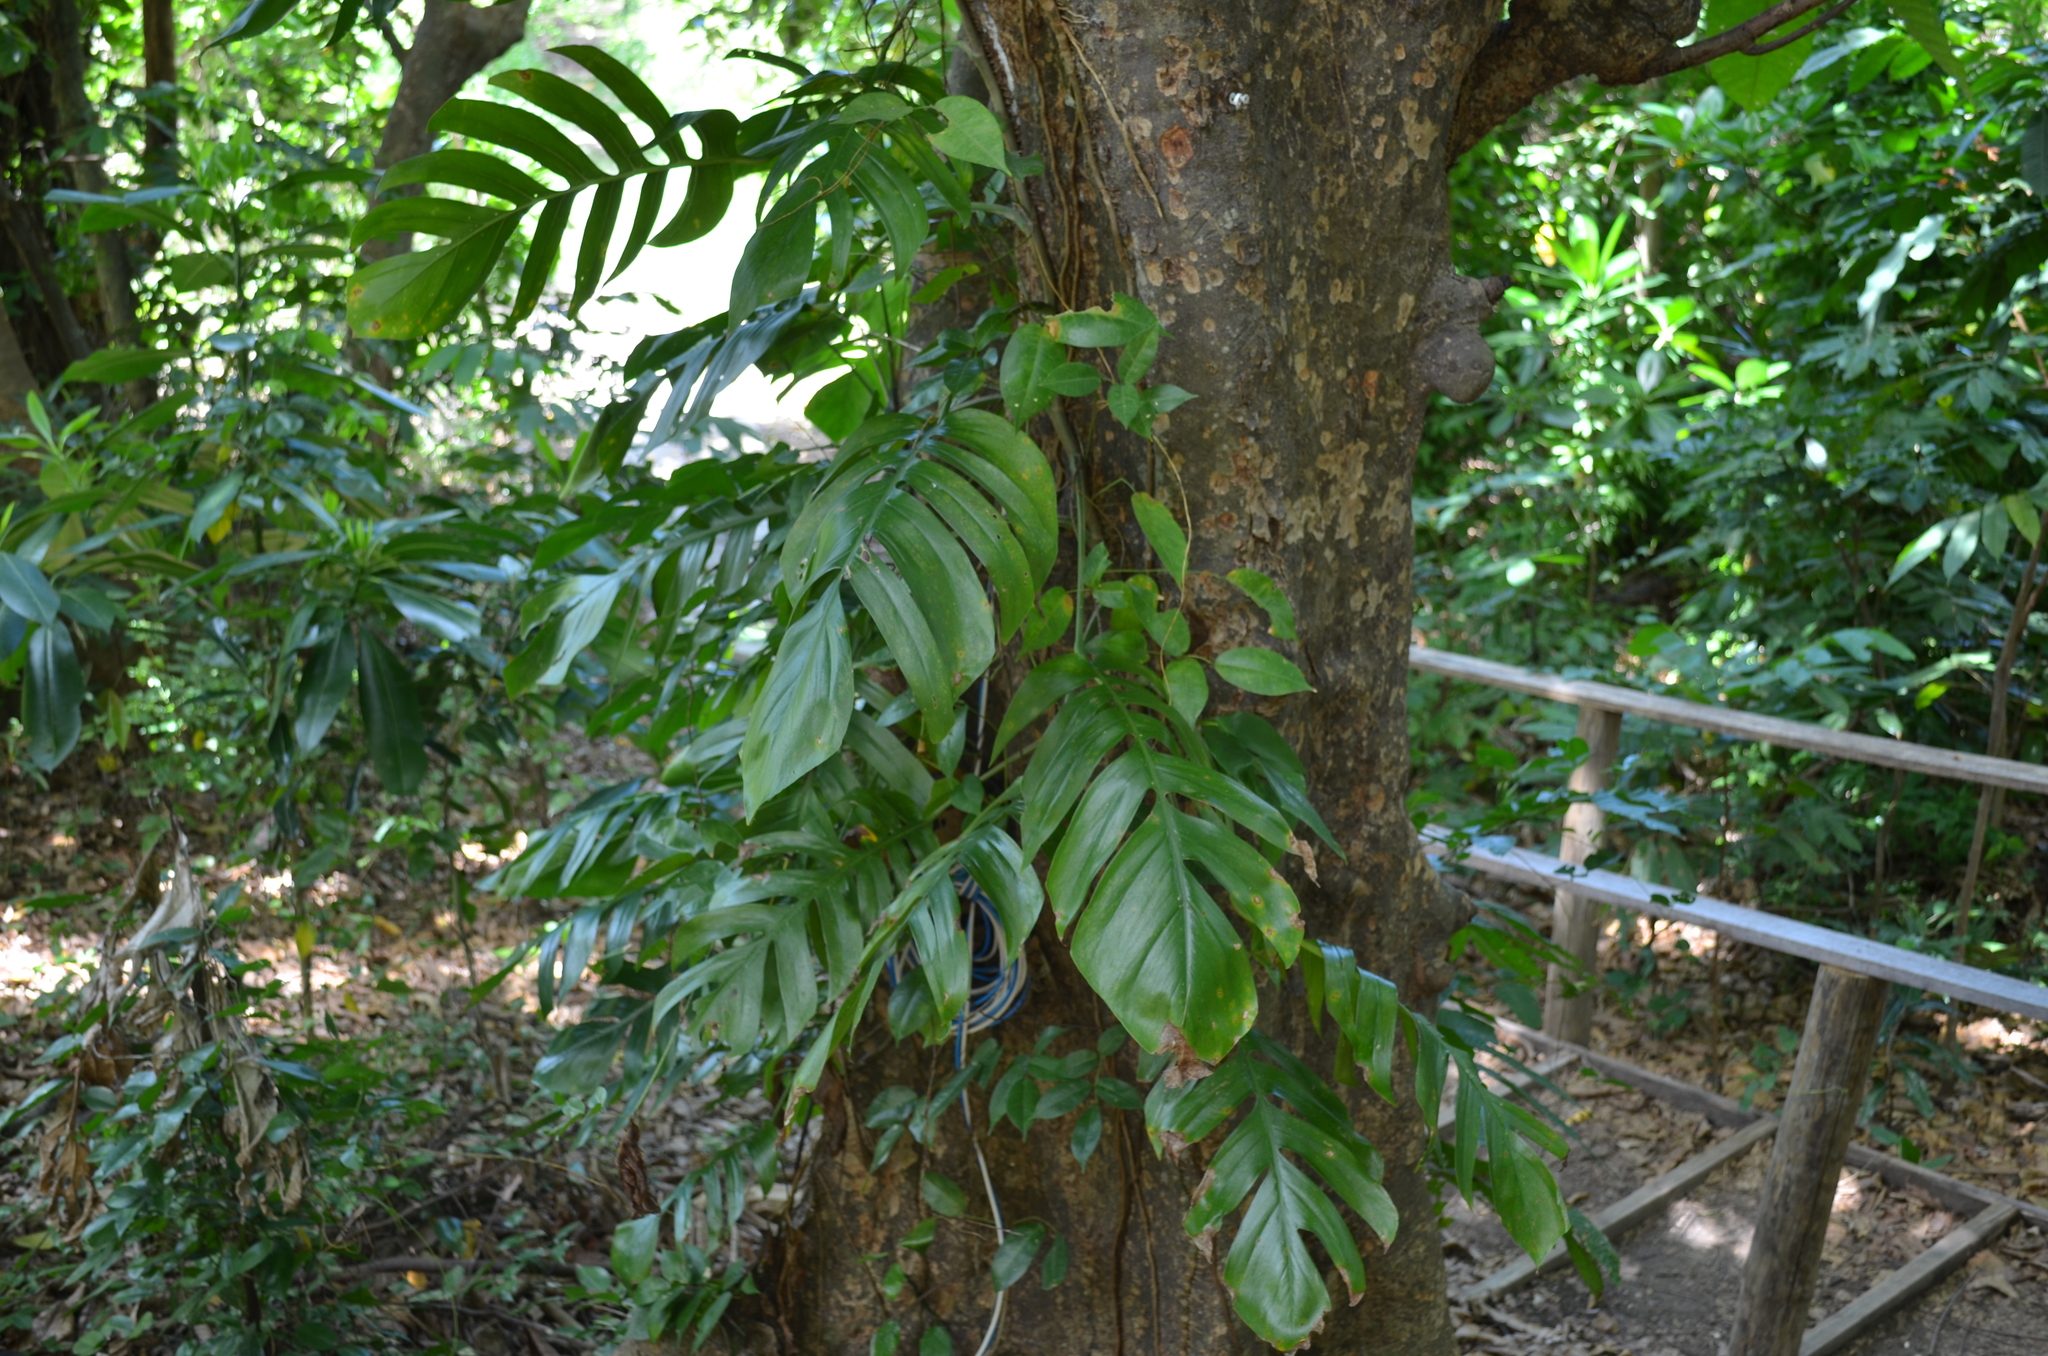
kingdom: Plantae
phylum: Tracheophyta
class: Liliopsida
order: Alismatales
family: Araceae
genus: Epipremnum
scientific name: Epipremnum pinnatum
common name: Centipede tongavine
